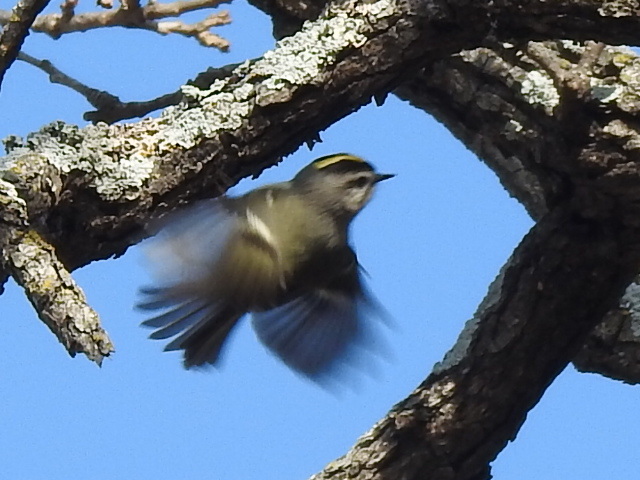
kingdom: Animalia
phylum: Chordata
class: Aves
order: Passeriformes
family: Regulidae
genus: Regulus
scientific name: Regulus satrapa
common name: Golden-crowned kinglet
